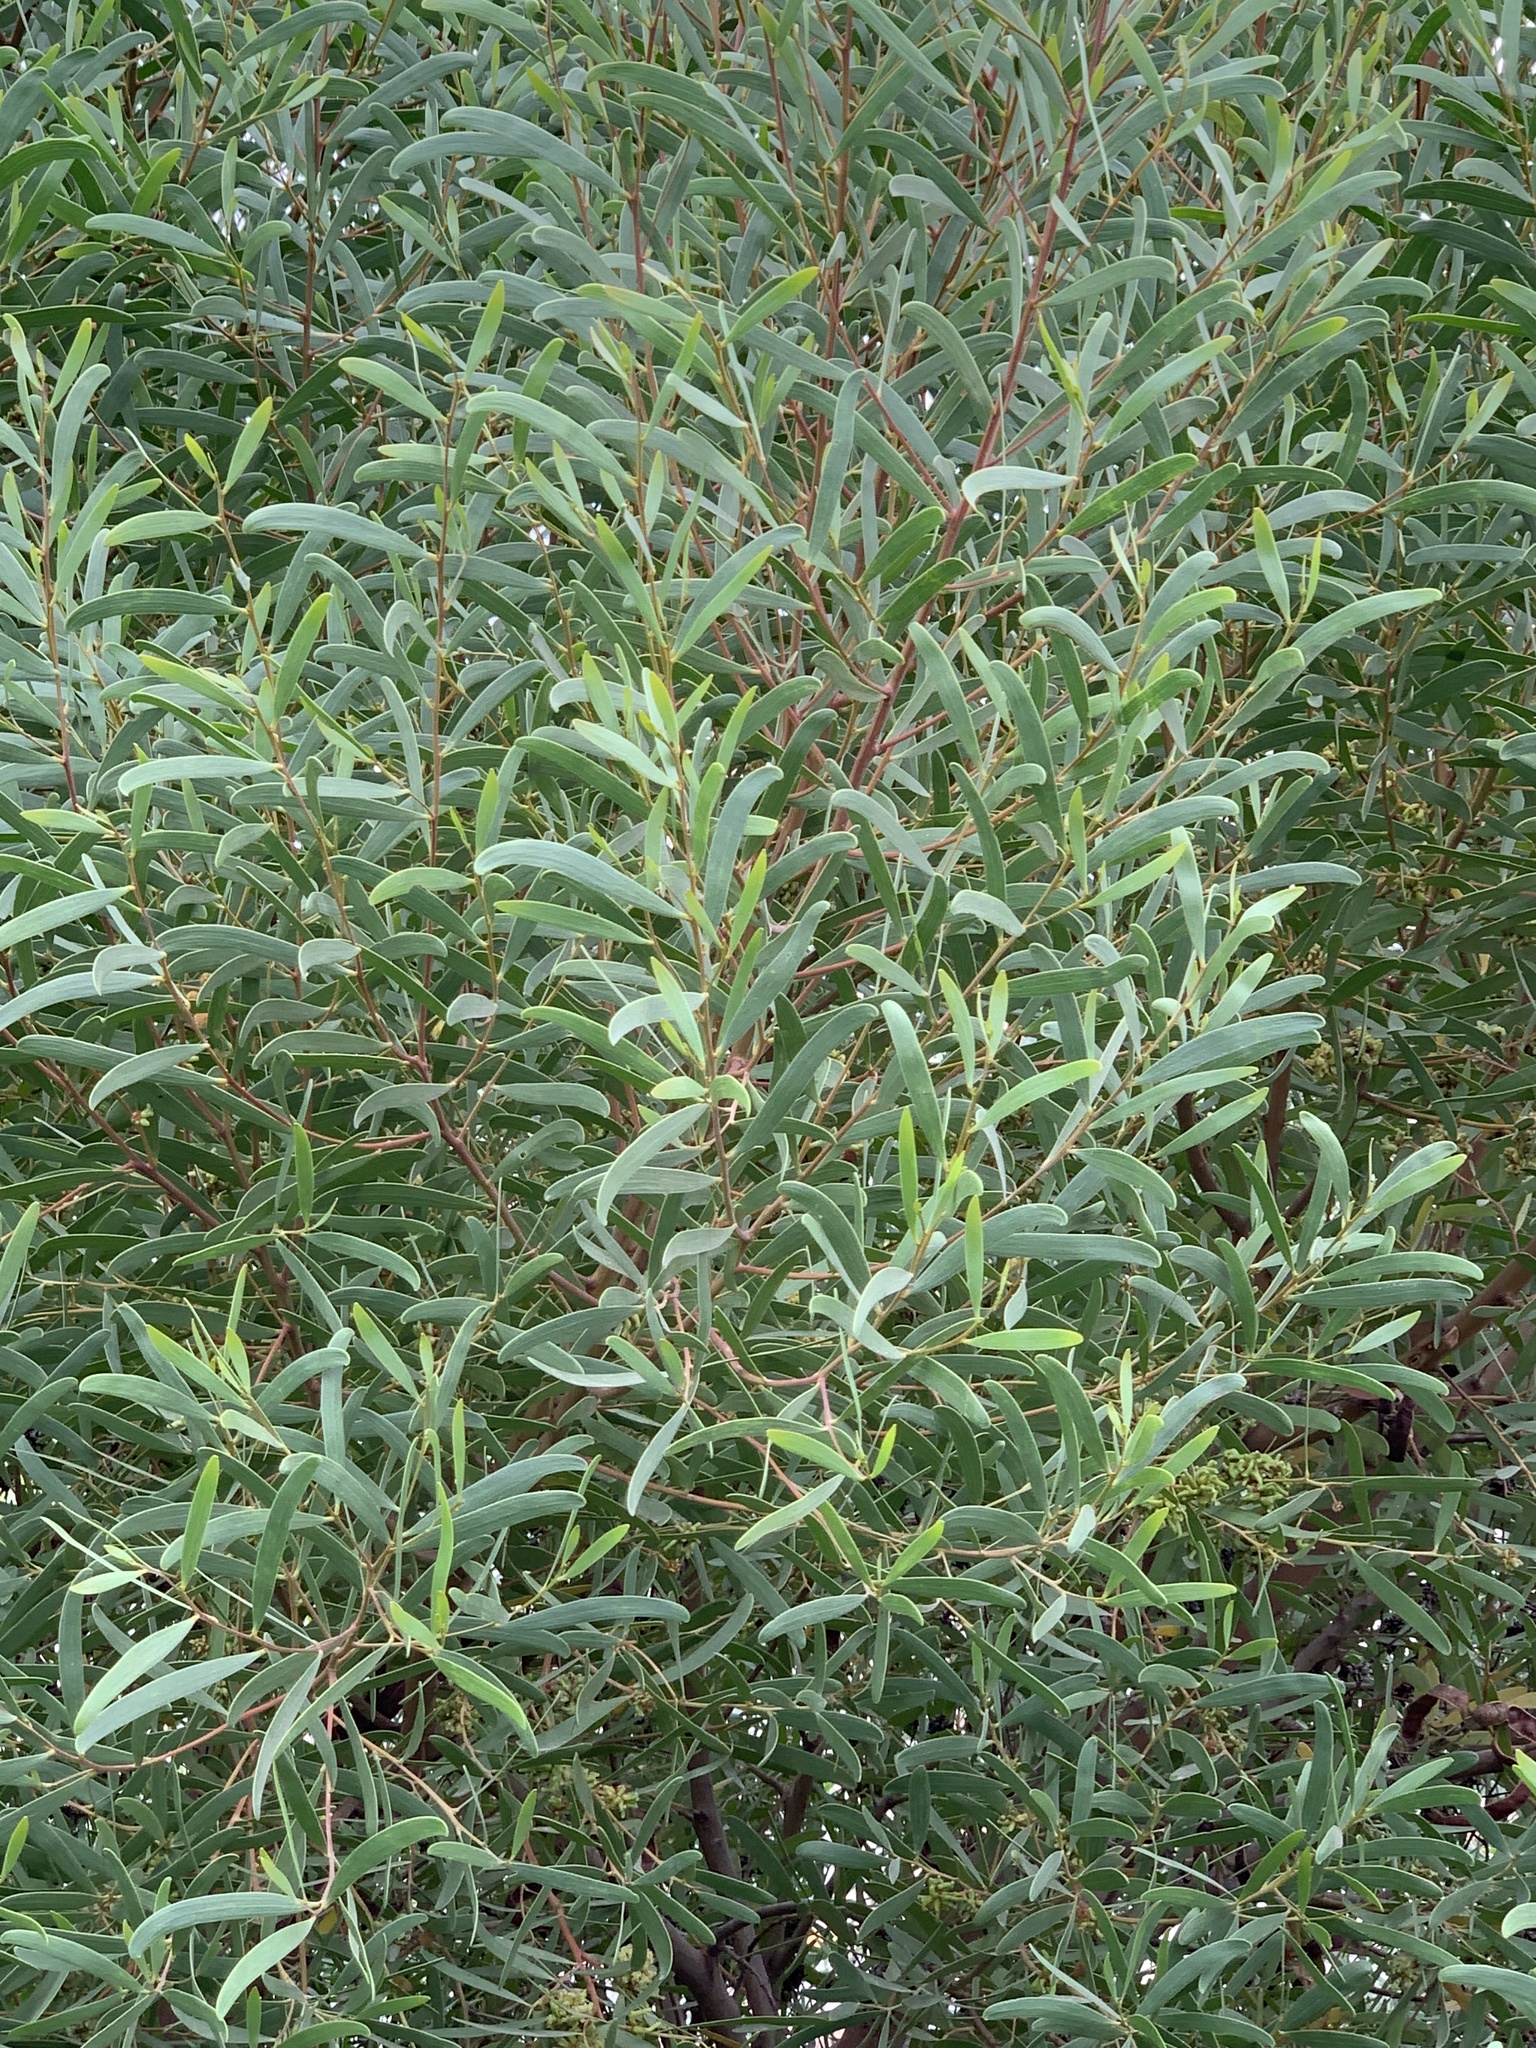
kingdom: Plantae
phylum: Tracheophyta
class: Magnoliopsida
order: Fabales
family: Fabaceae
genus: Acacia
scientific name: Acacia cyclops
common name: Coastal wattle
